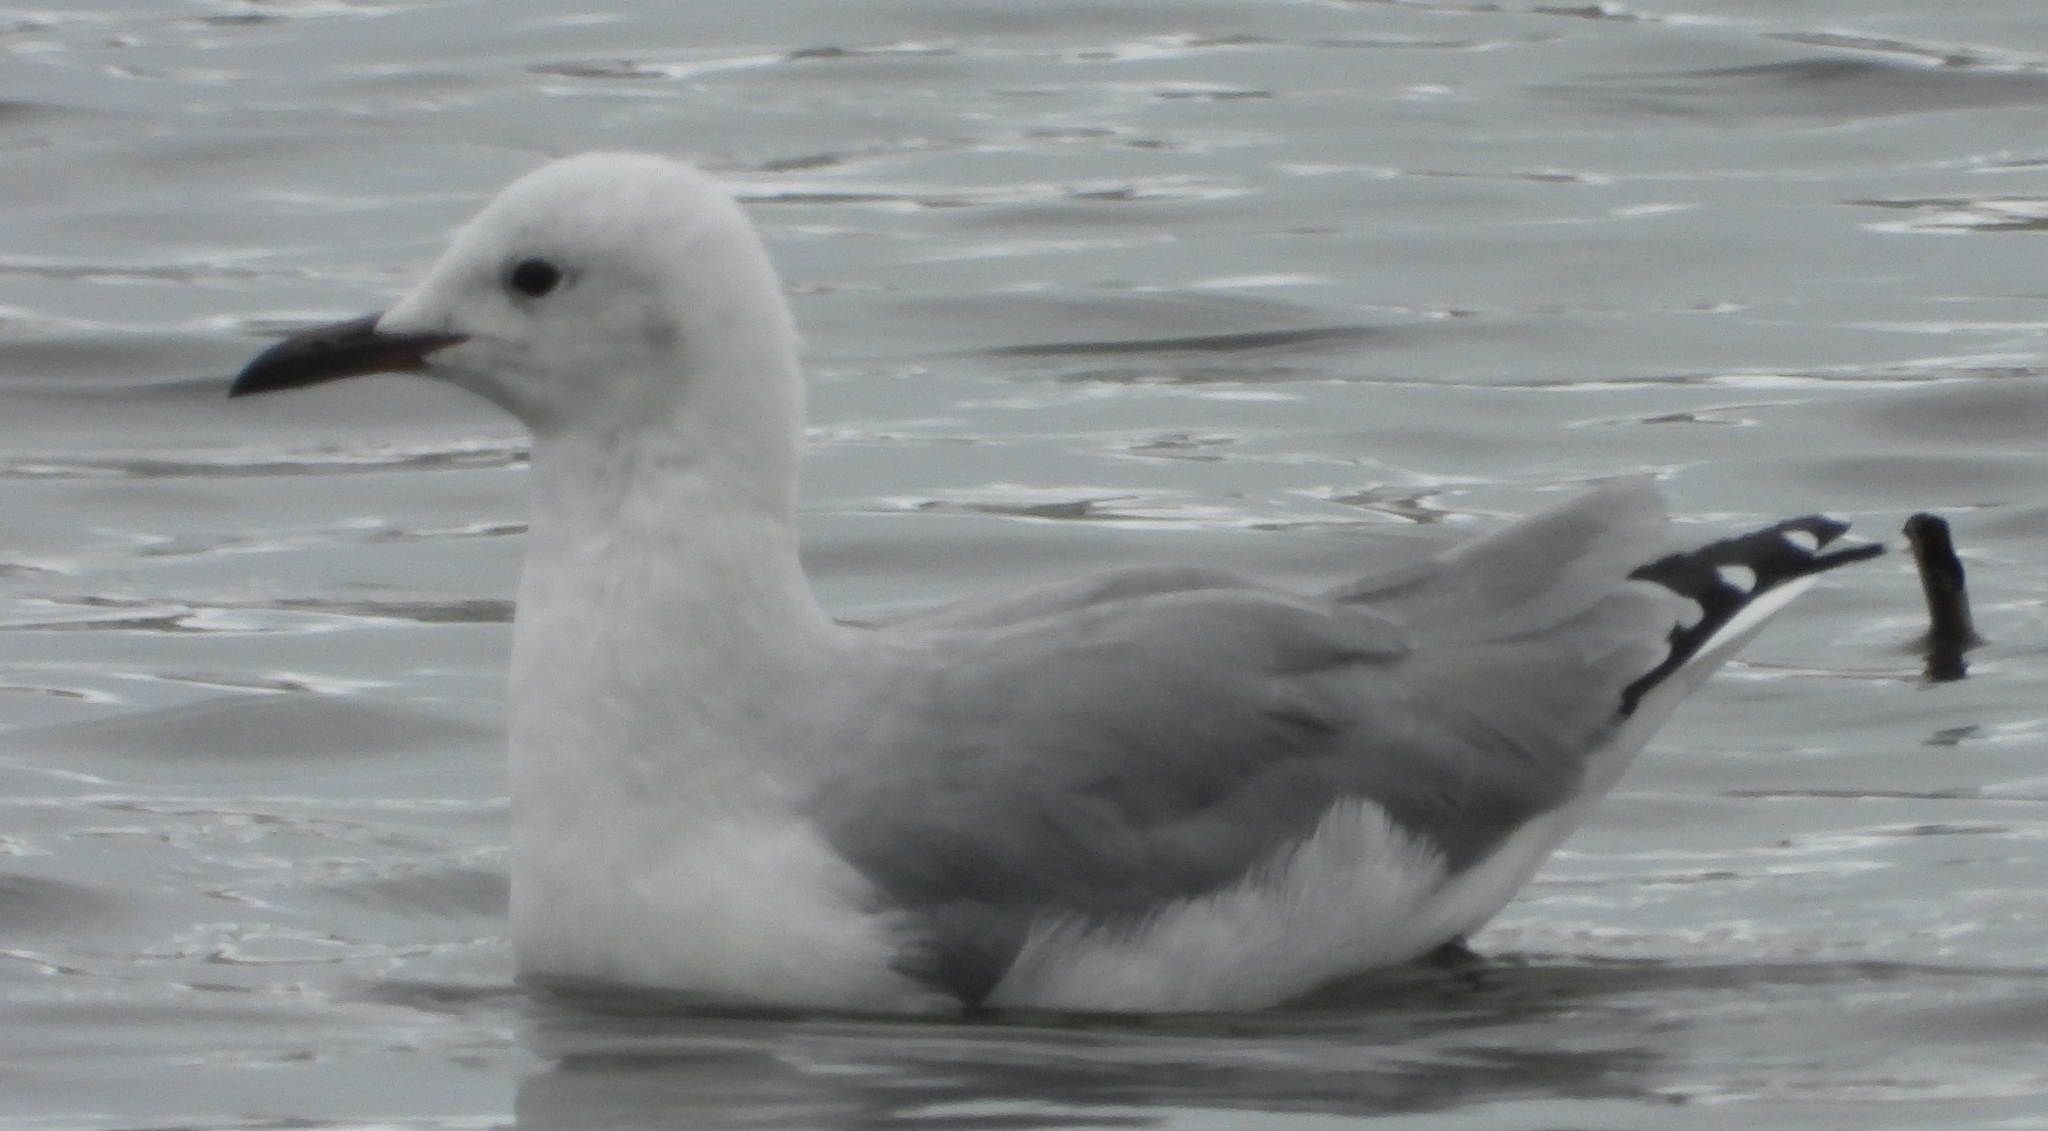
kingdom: Animalia
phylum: Chordata
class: Aves
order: Charadriiformes
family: Laridae
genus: Chroicocephalus
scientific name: Chroicocephalus hartlaubii
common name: Hartlaub's gull
